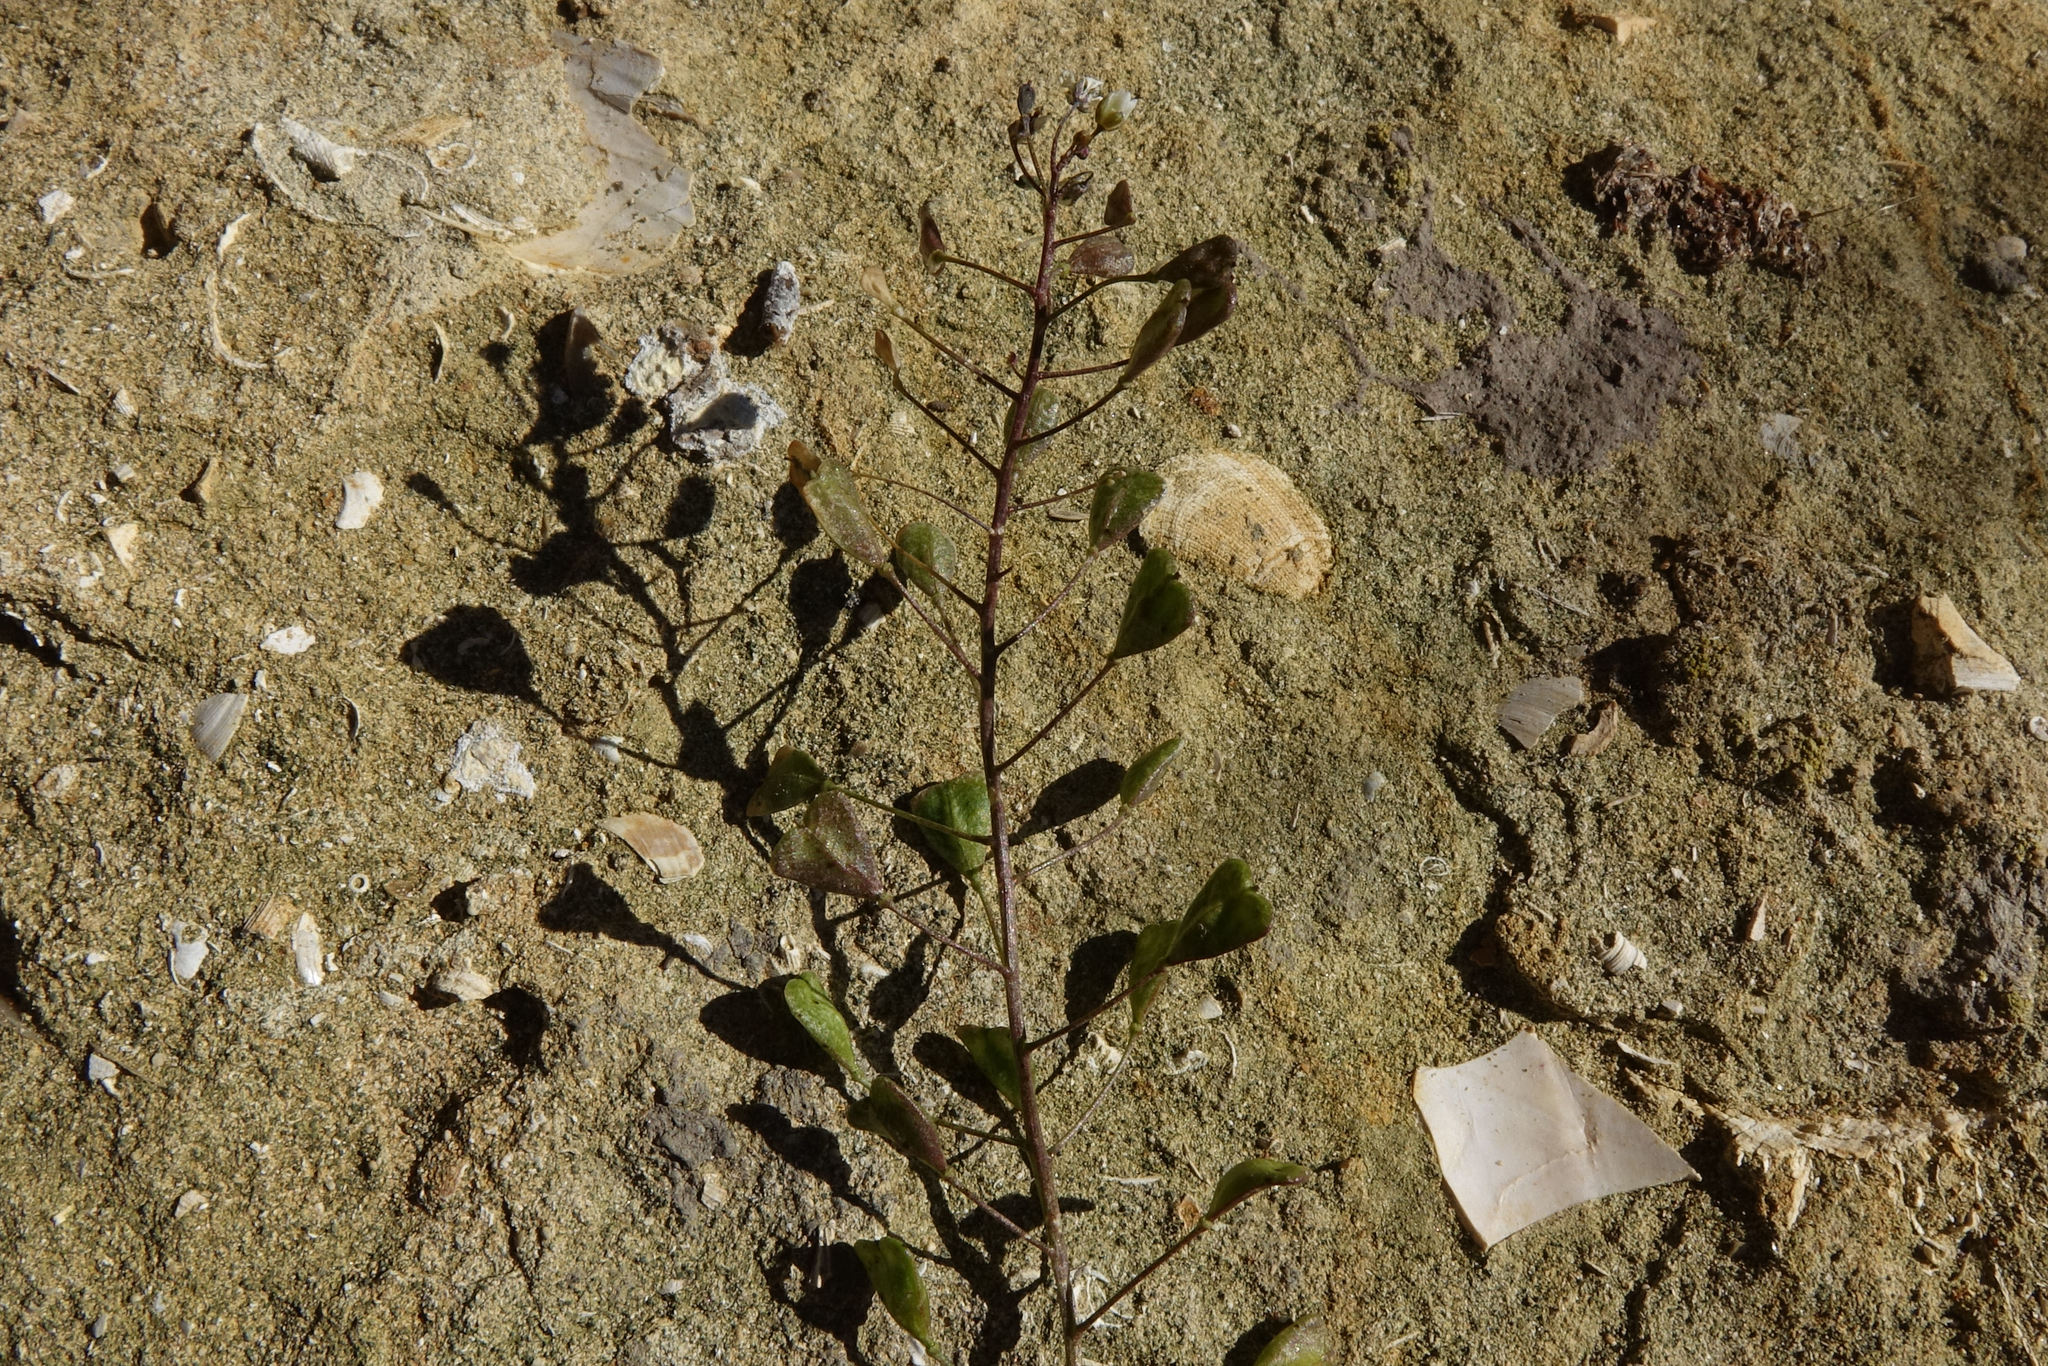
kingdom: Plantae
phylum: Tracheophyta
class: Magnoliopsida
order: Brassicales
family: Brassicaceae
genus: Capsella
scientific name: Capsella bursa-pastoris
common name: Shepherd's purse
